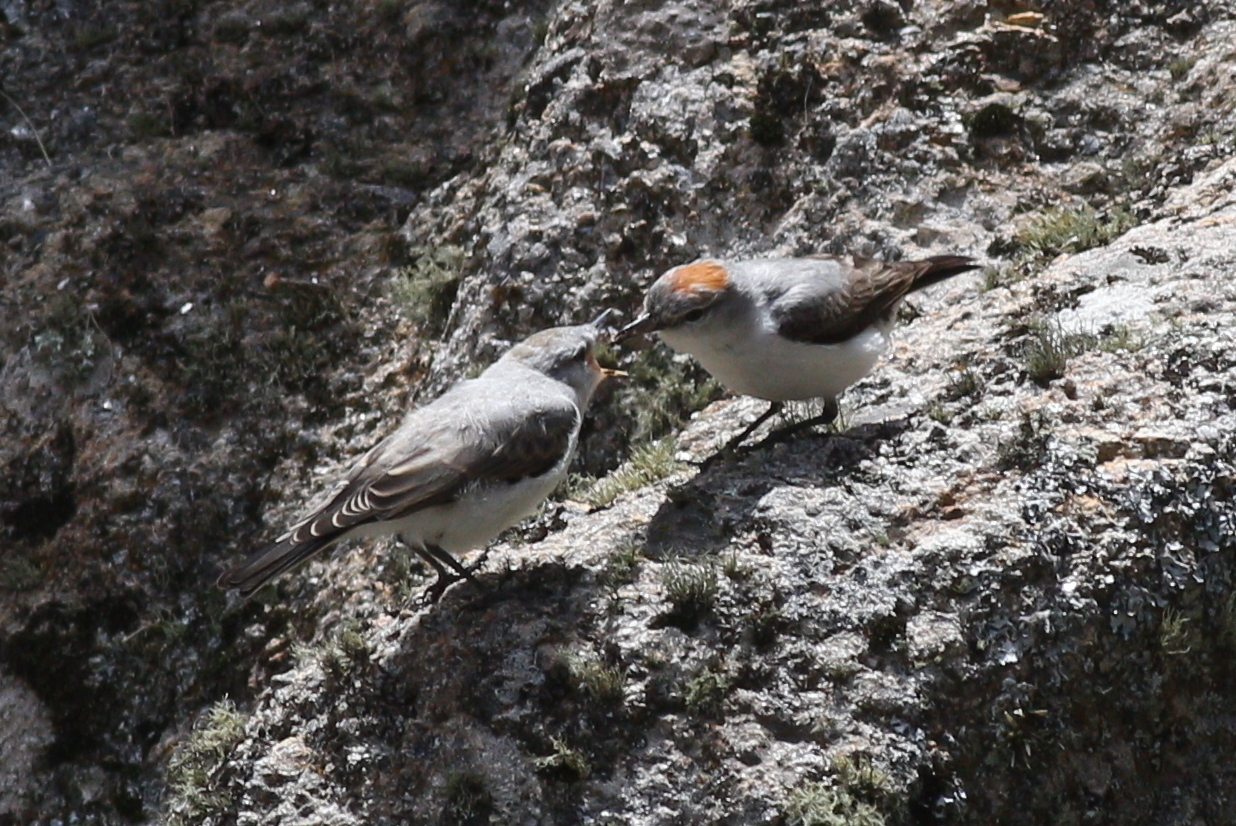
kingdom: Animalia
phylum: Chordata
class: Aves
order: Passeriformes
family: Tyrannidae
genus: Muscisaxicola
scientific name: Muscisaxicola rufivertex
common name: Rufous-naped ground tyrant
